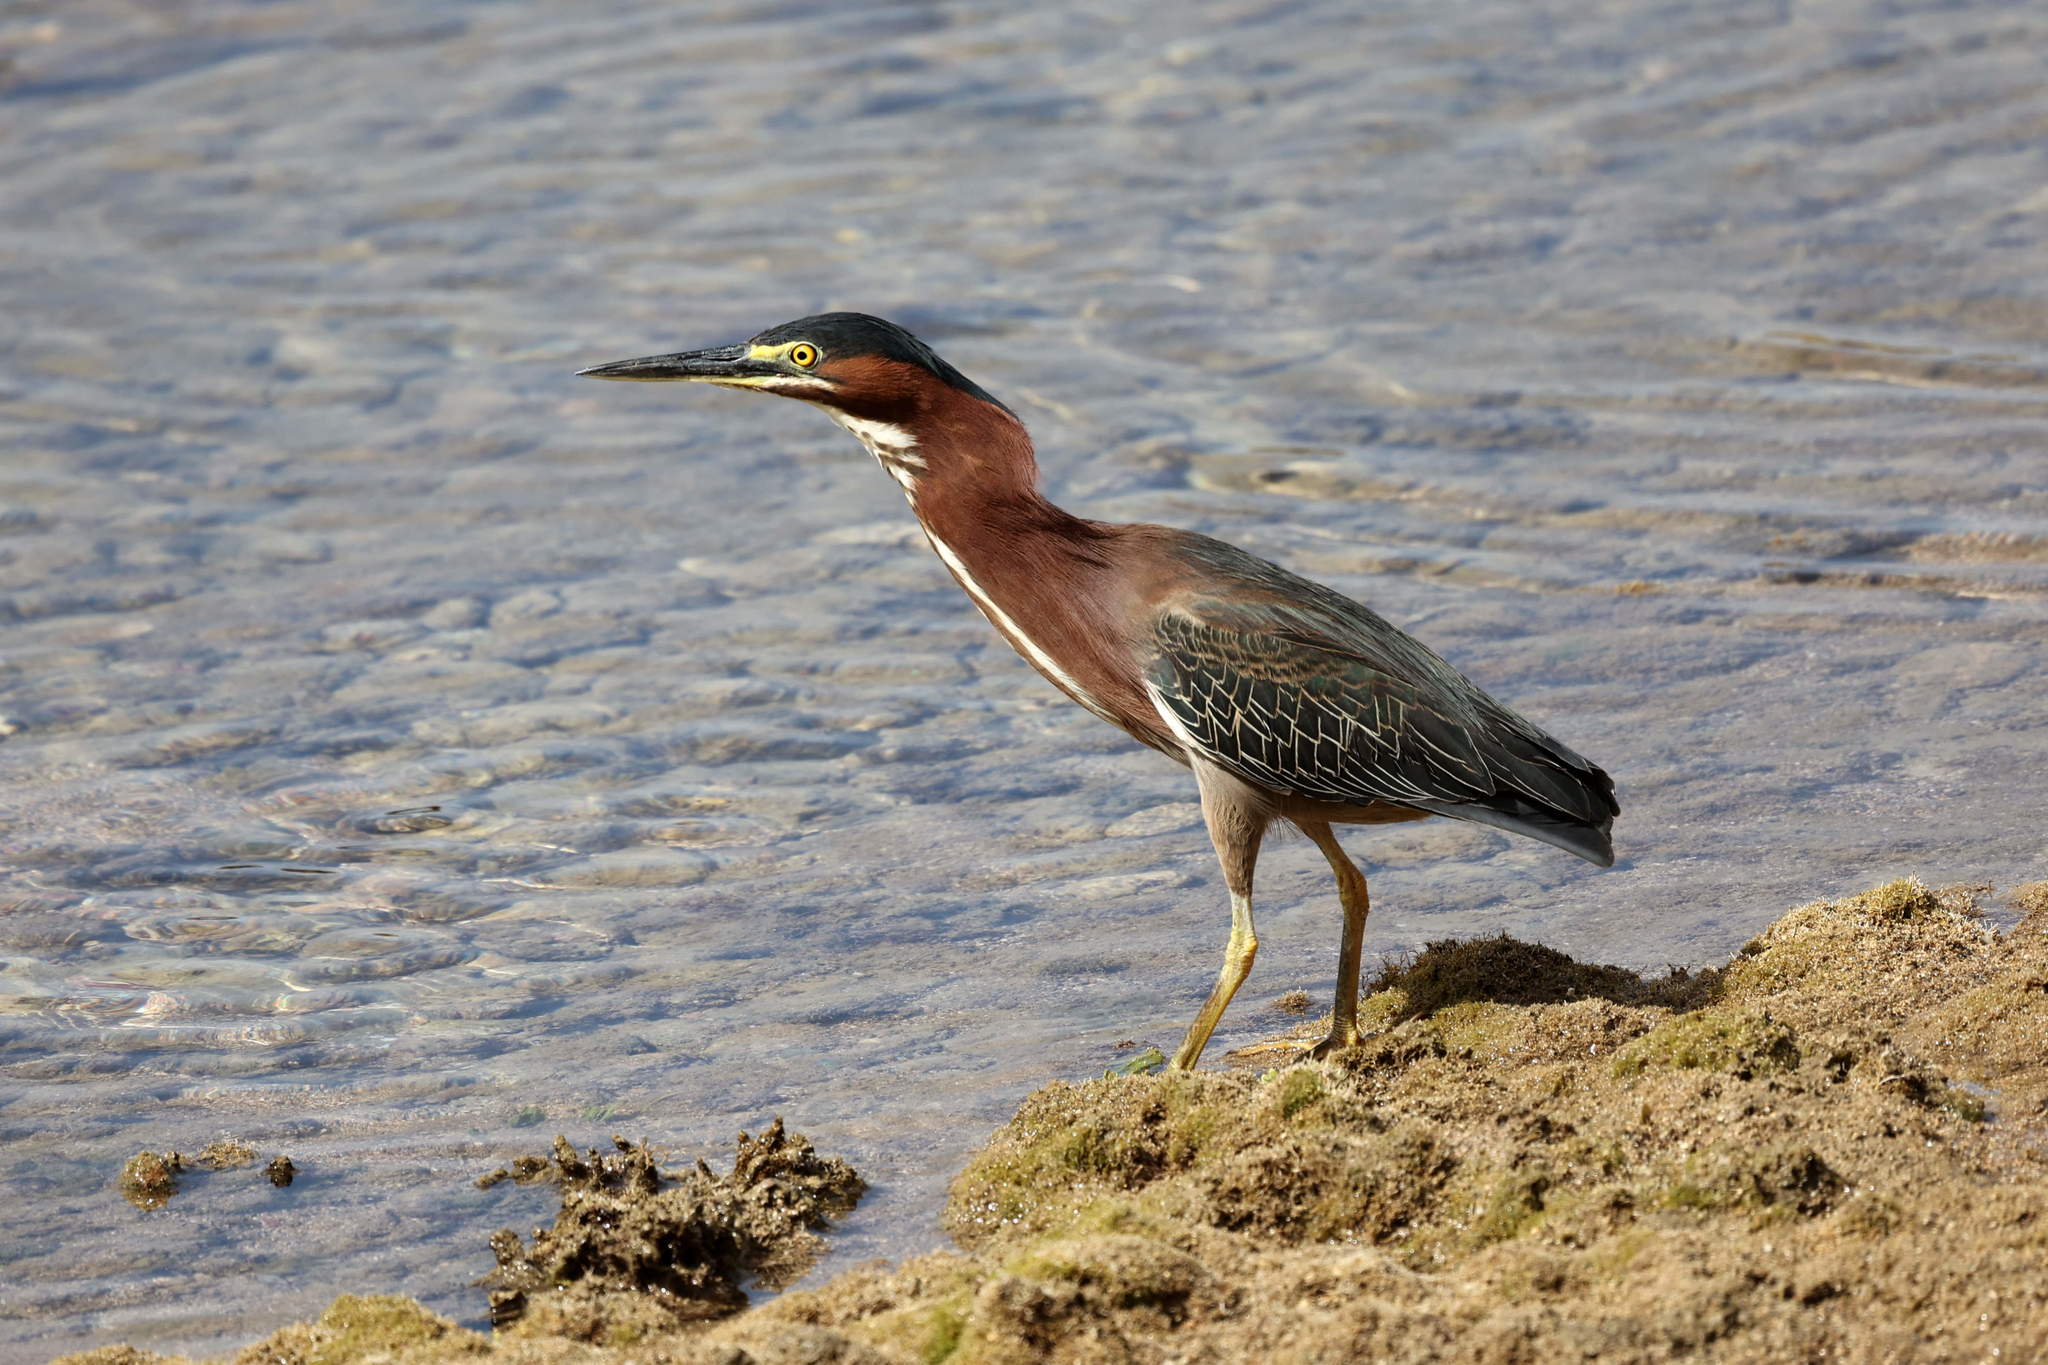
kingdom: Animalia
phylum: Chordata
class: Aves
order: Pelecaniformes
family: Ardeidae
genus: Butorides
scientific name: Butorides virescens
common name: Green heron
